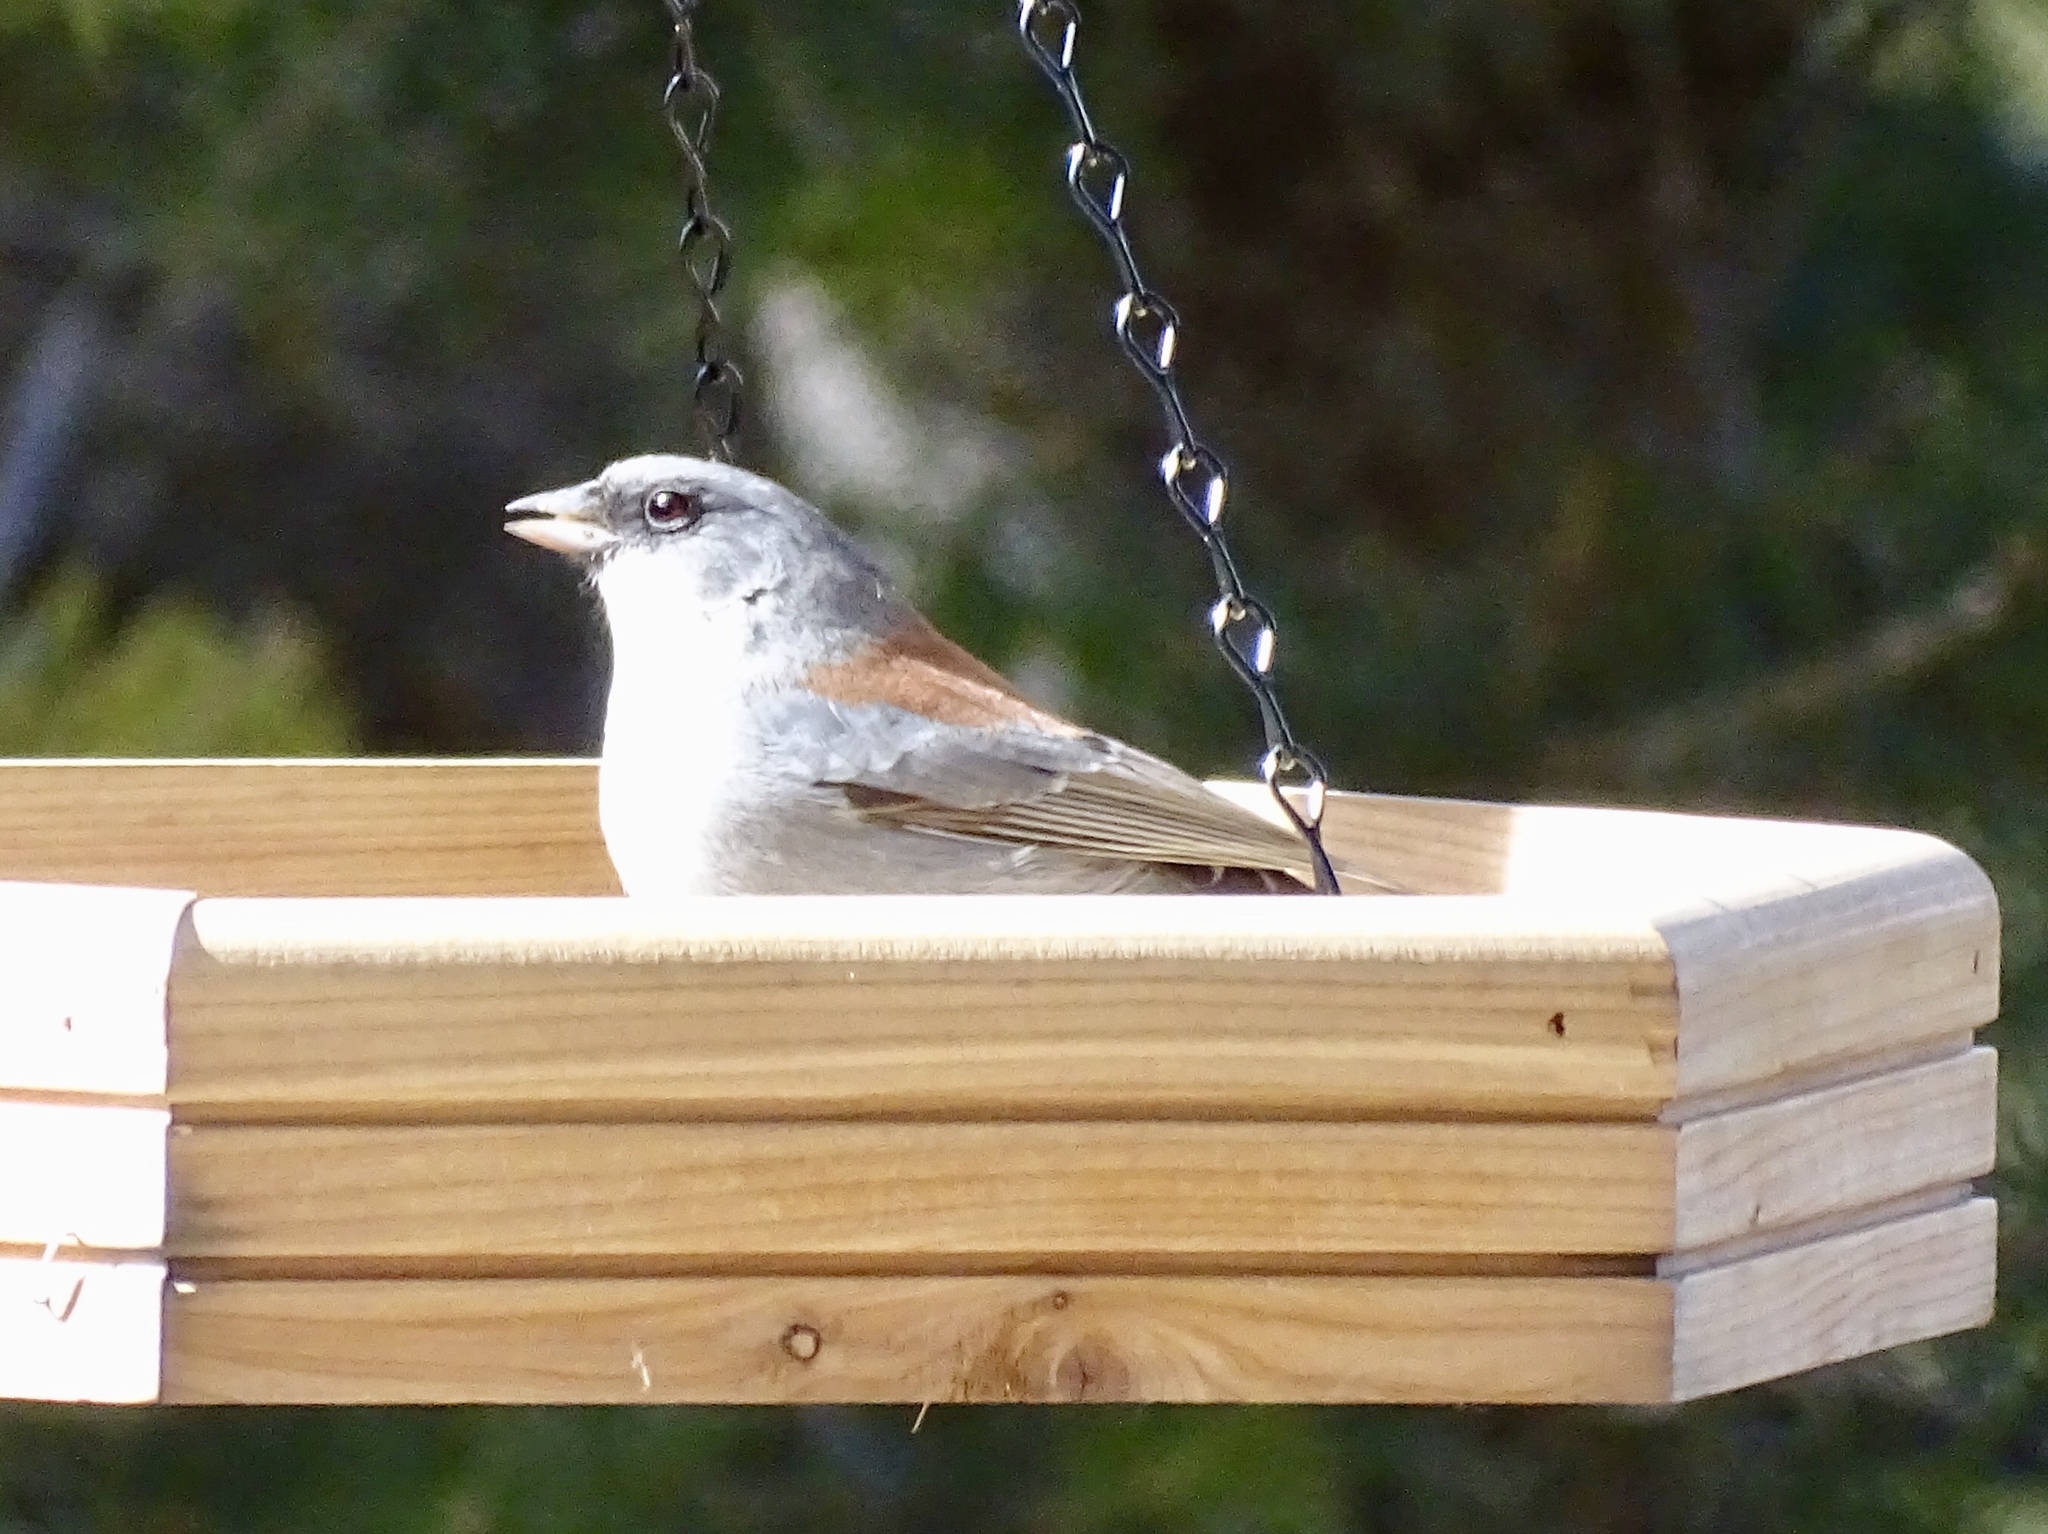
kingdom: Animalia
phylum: Chordata
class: Aves
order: Passeriformes
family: Passerellidae
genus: Junco
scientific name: Junco hyemalis
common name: Dark-eyed junco
